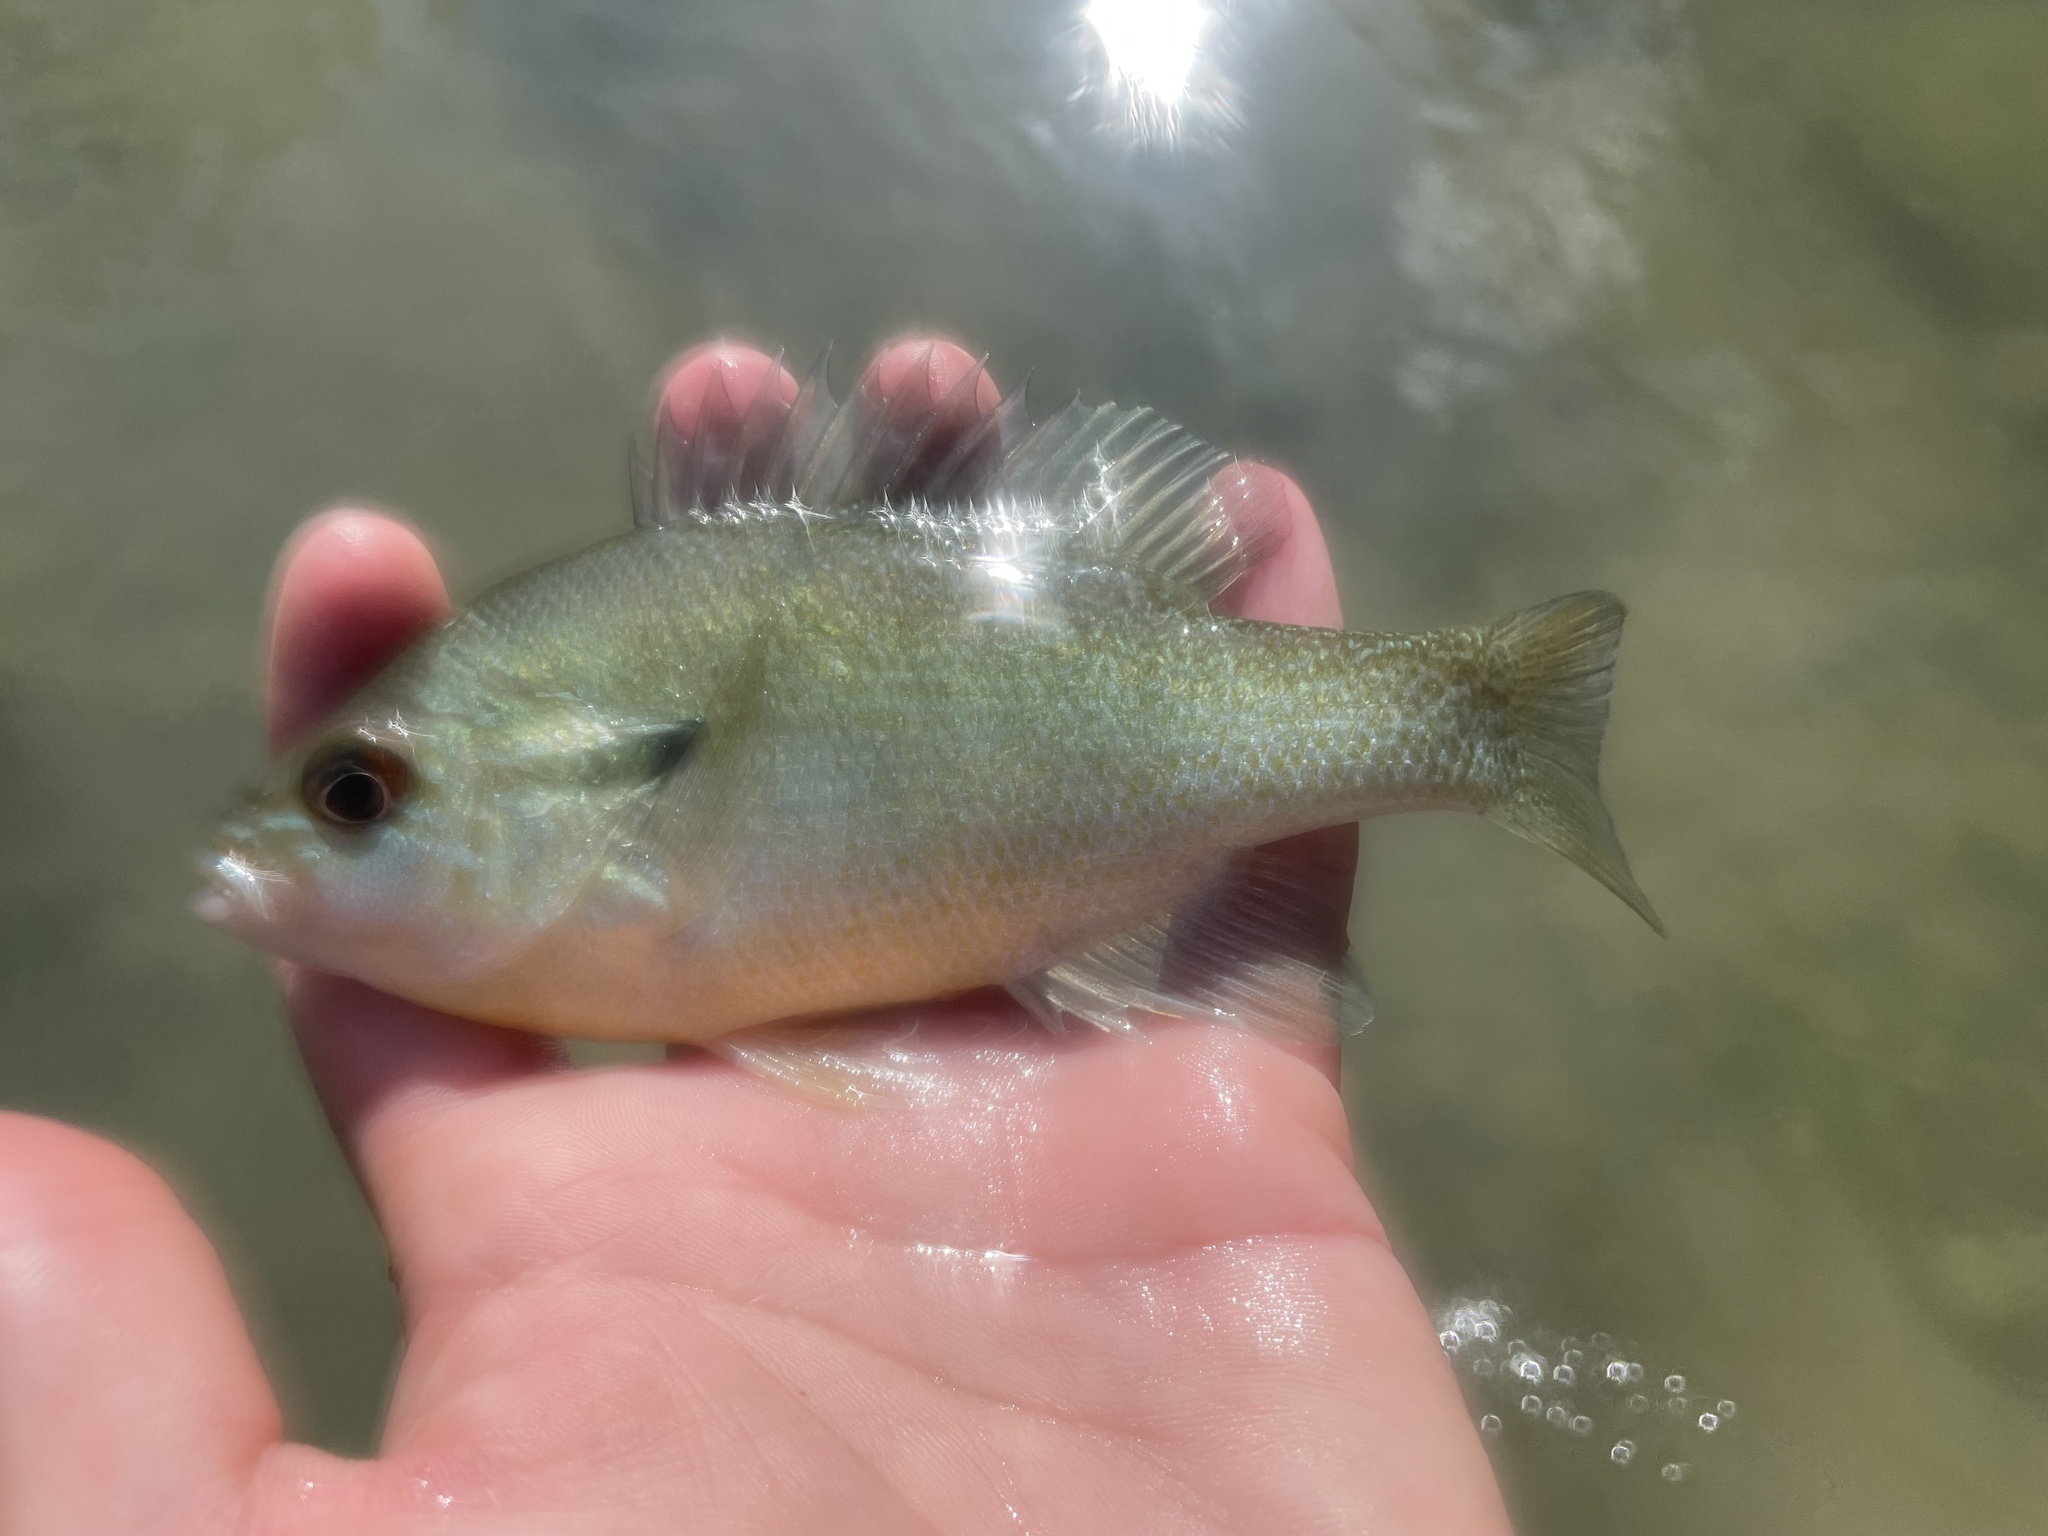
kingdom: Animalia
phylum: Chordata
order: Perciformes
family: Centrarchidae
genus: Lepomis
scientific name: Lepomis auritus
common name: Redbreast sunfish
